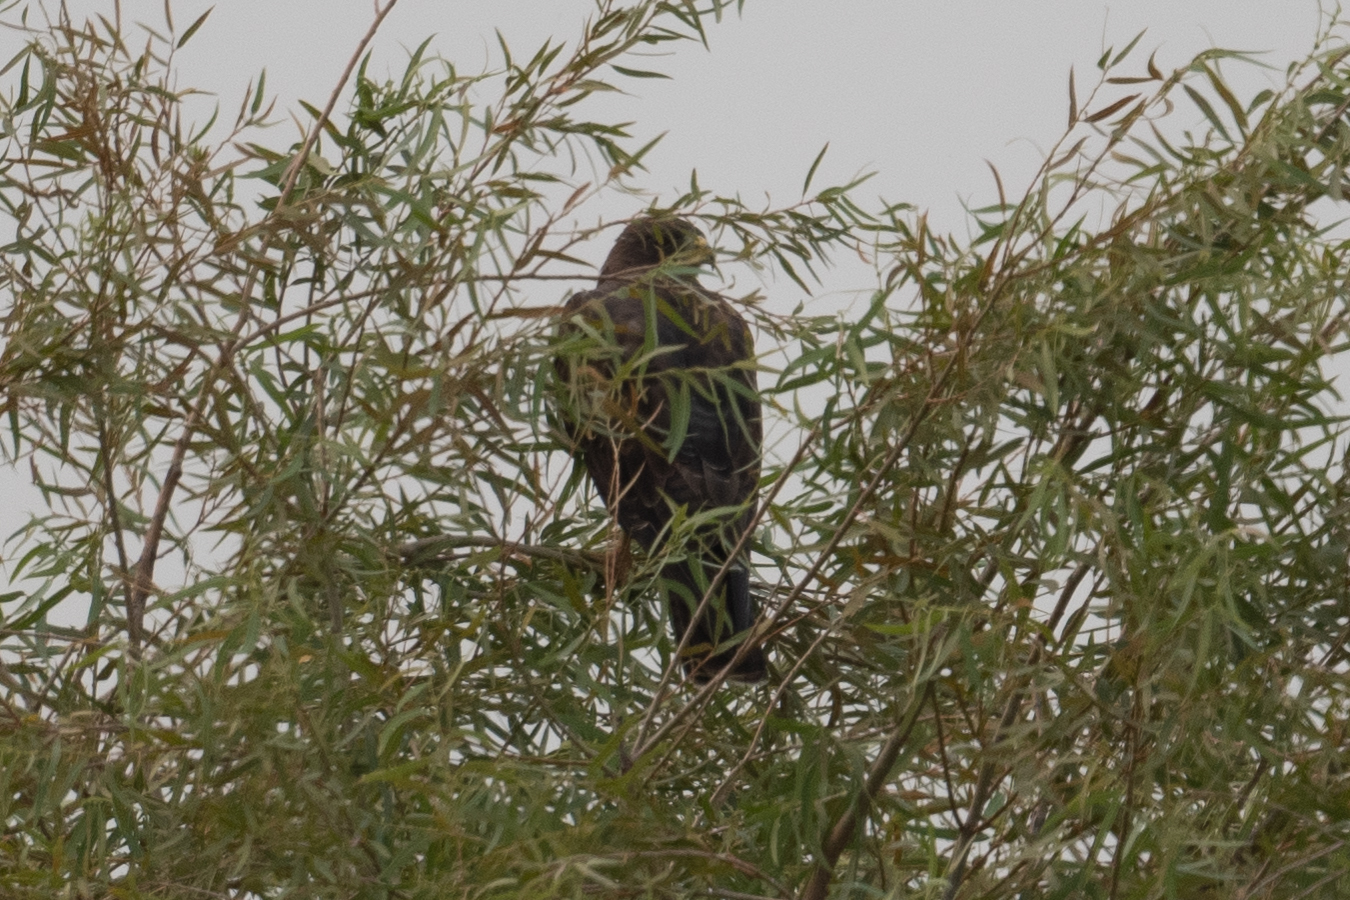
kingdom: Animalia
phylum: Chordata
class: Aves
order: Accipitriformes
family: Accipitridae
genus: Buteo
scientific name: Buteo swainsoni
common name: Swainson's hawk
